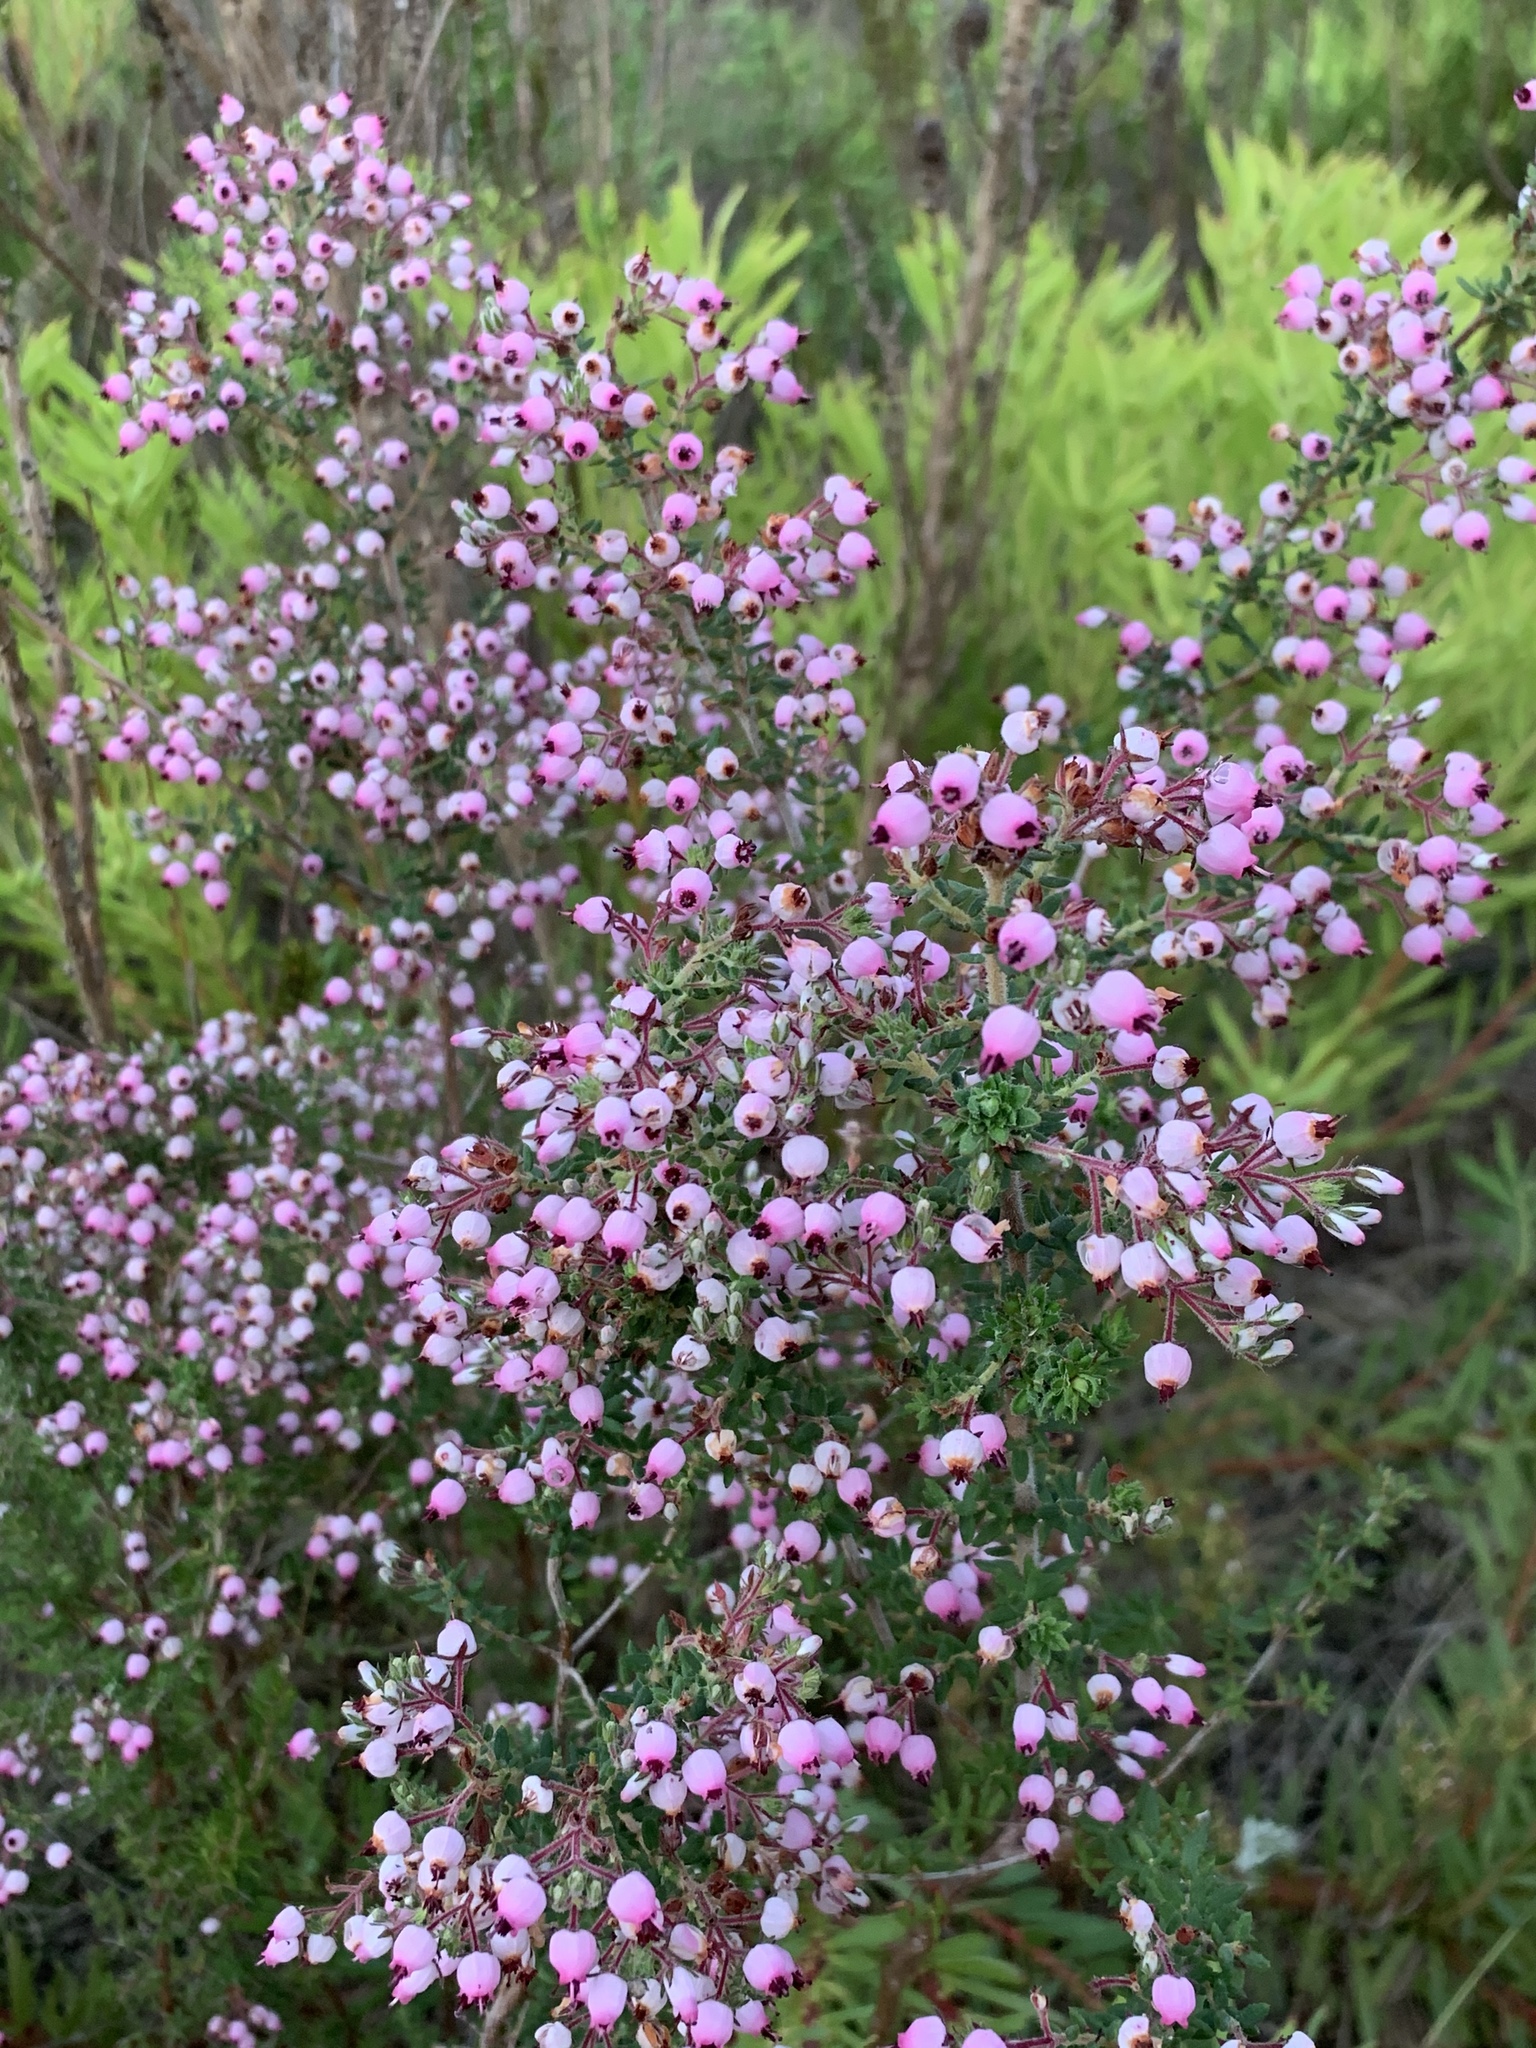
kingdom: Plantae
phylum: Tracheophyta
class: Magnoliopsida
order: Ericales
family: Ericaceae
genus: Erica
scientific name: Erica hirta
